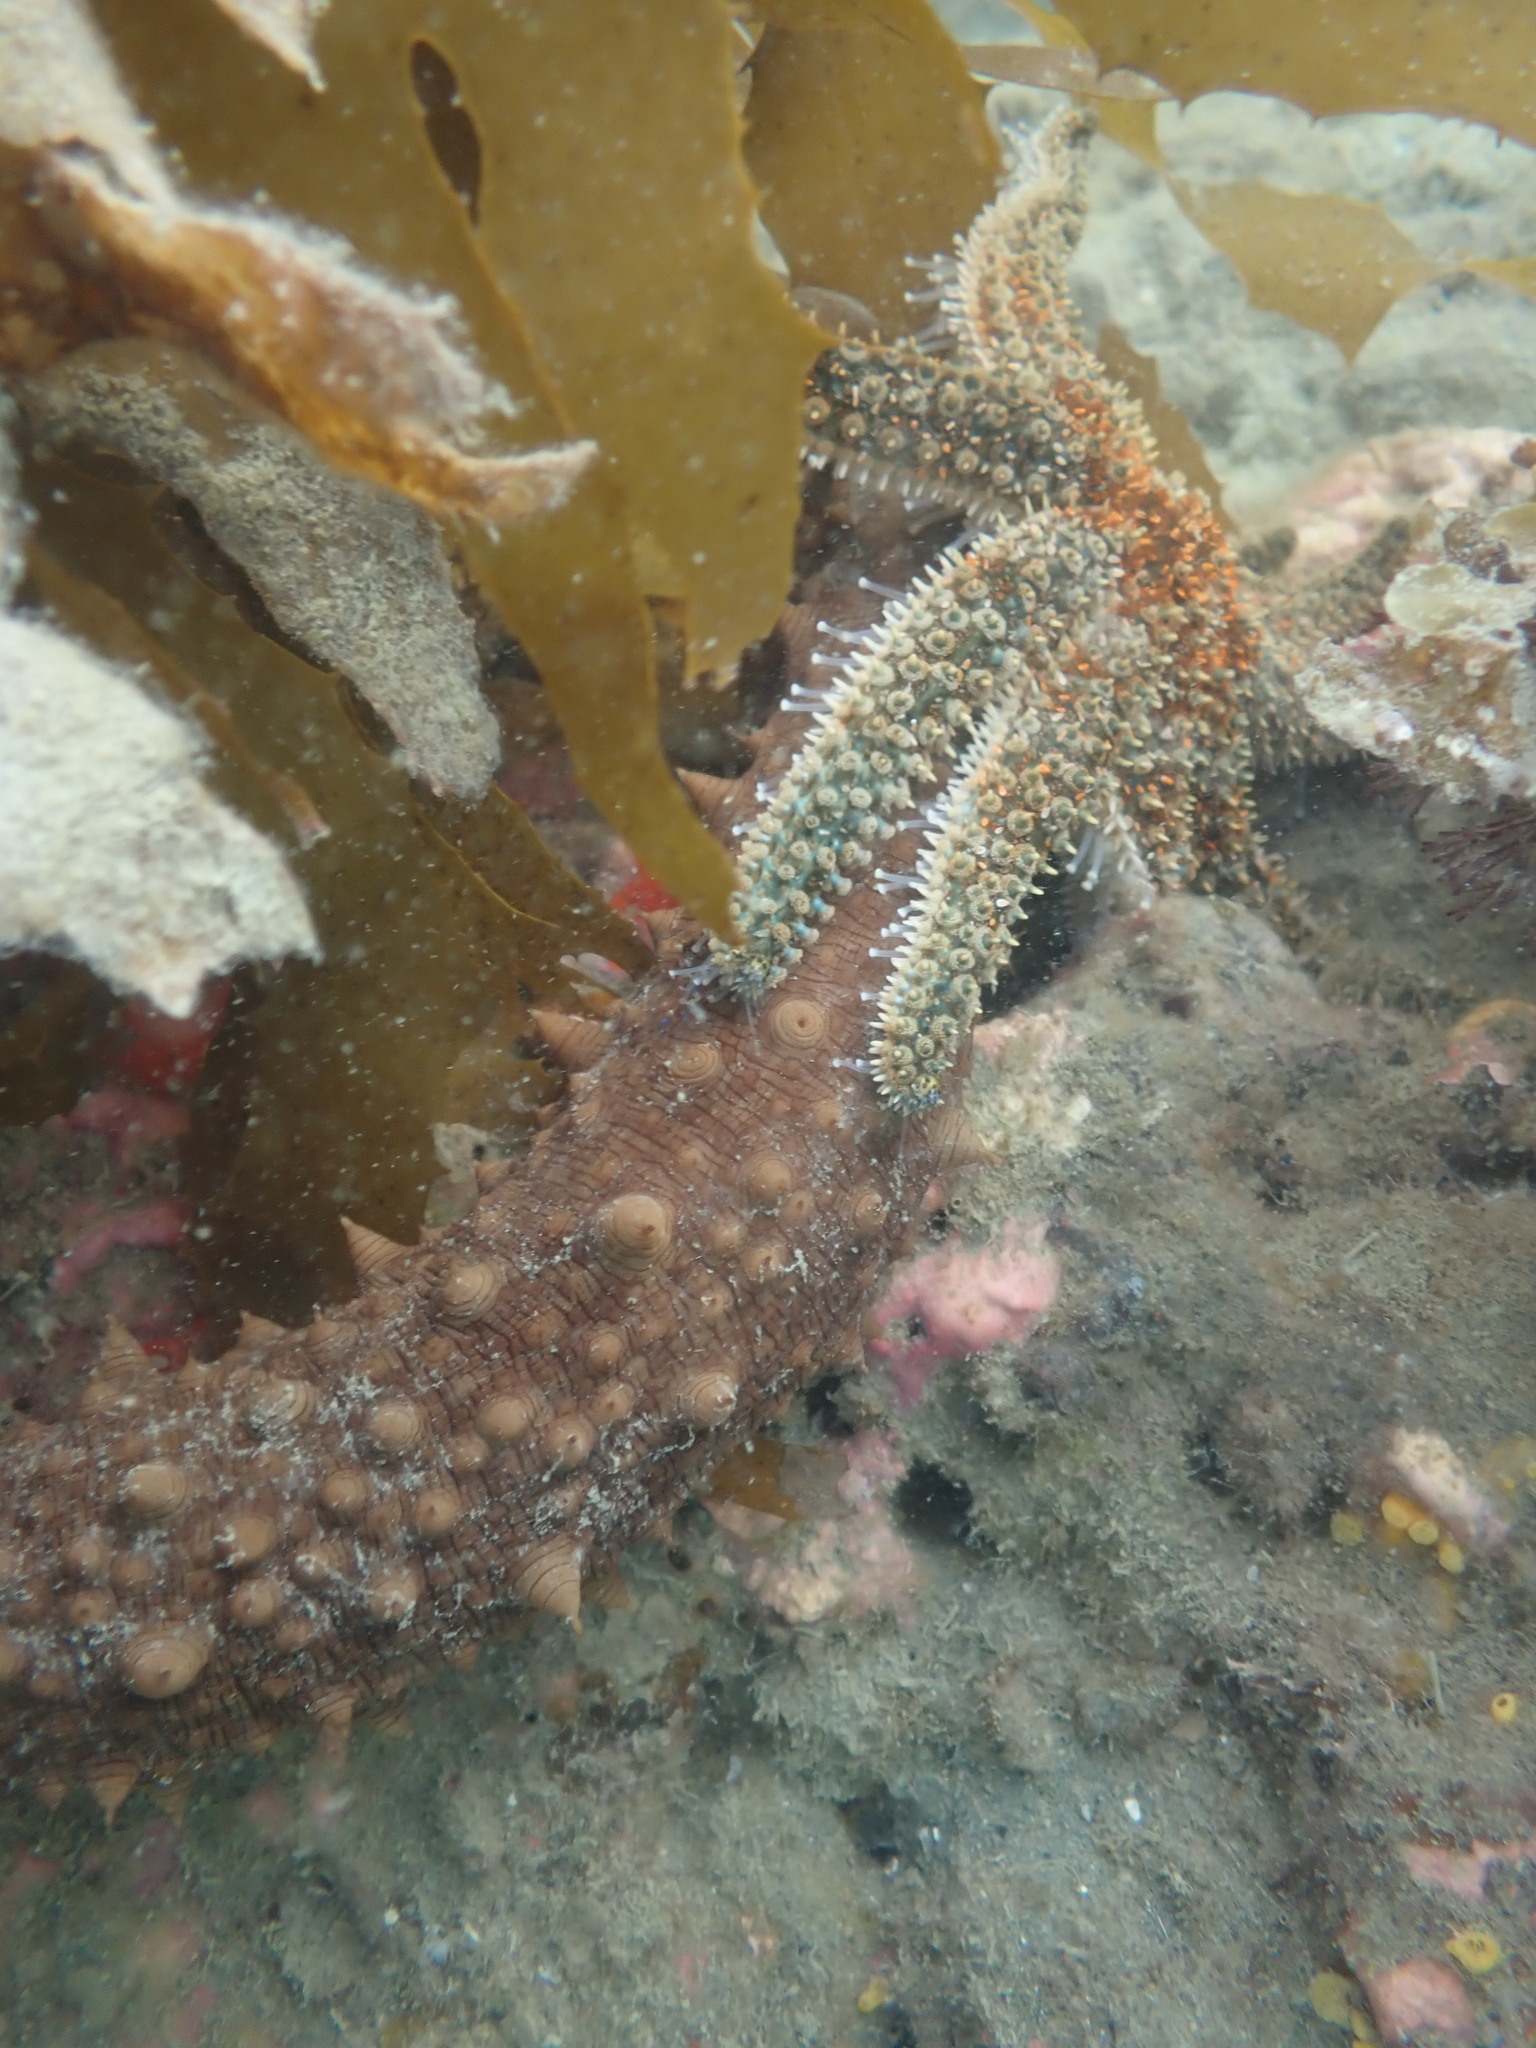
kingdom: Animalia
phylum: Echinodermata
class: Holothuroidea
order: Synallactida
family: Stichopodidae
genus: Australostichopus
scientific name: Australostichopus mollis
